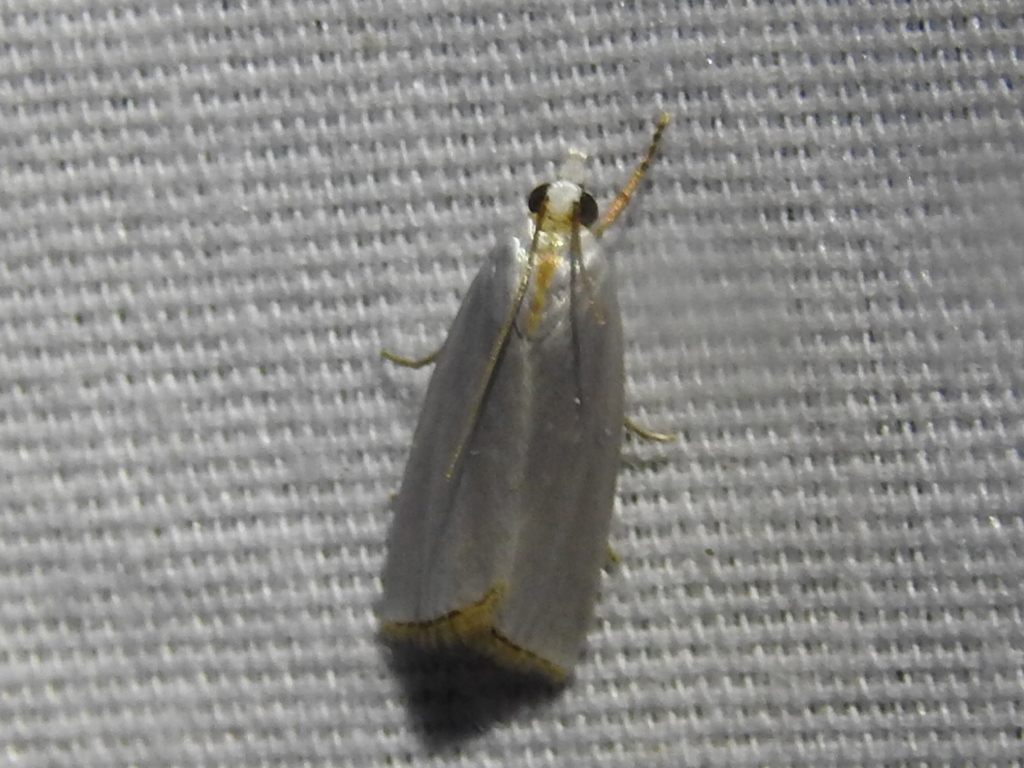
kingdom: Animalia
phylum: Arthropoda
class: Insecta
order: Lepidoptera
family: Crambidae
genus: Argyria
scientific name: Argyria nivalis
